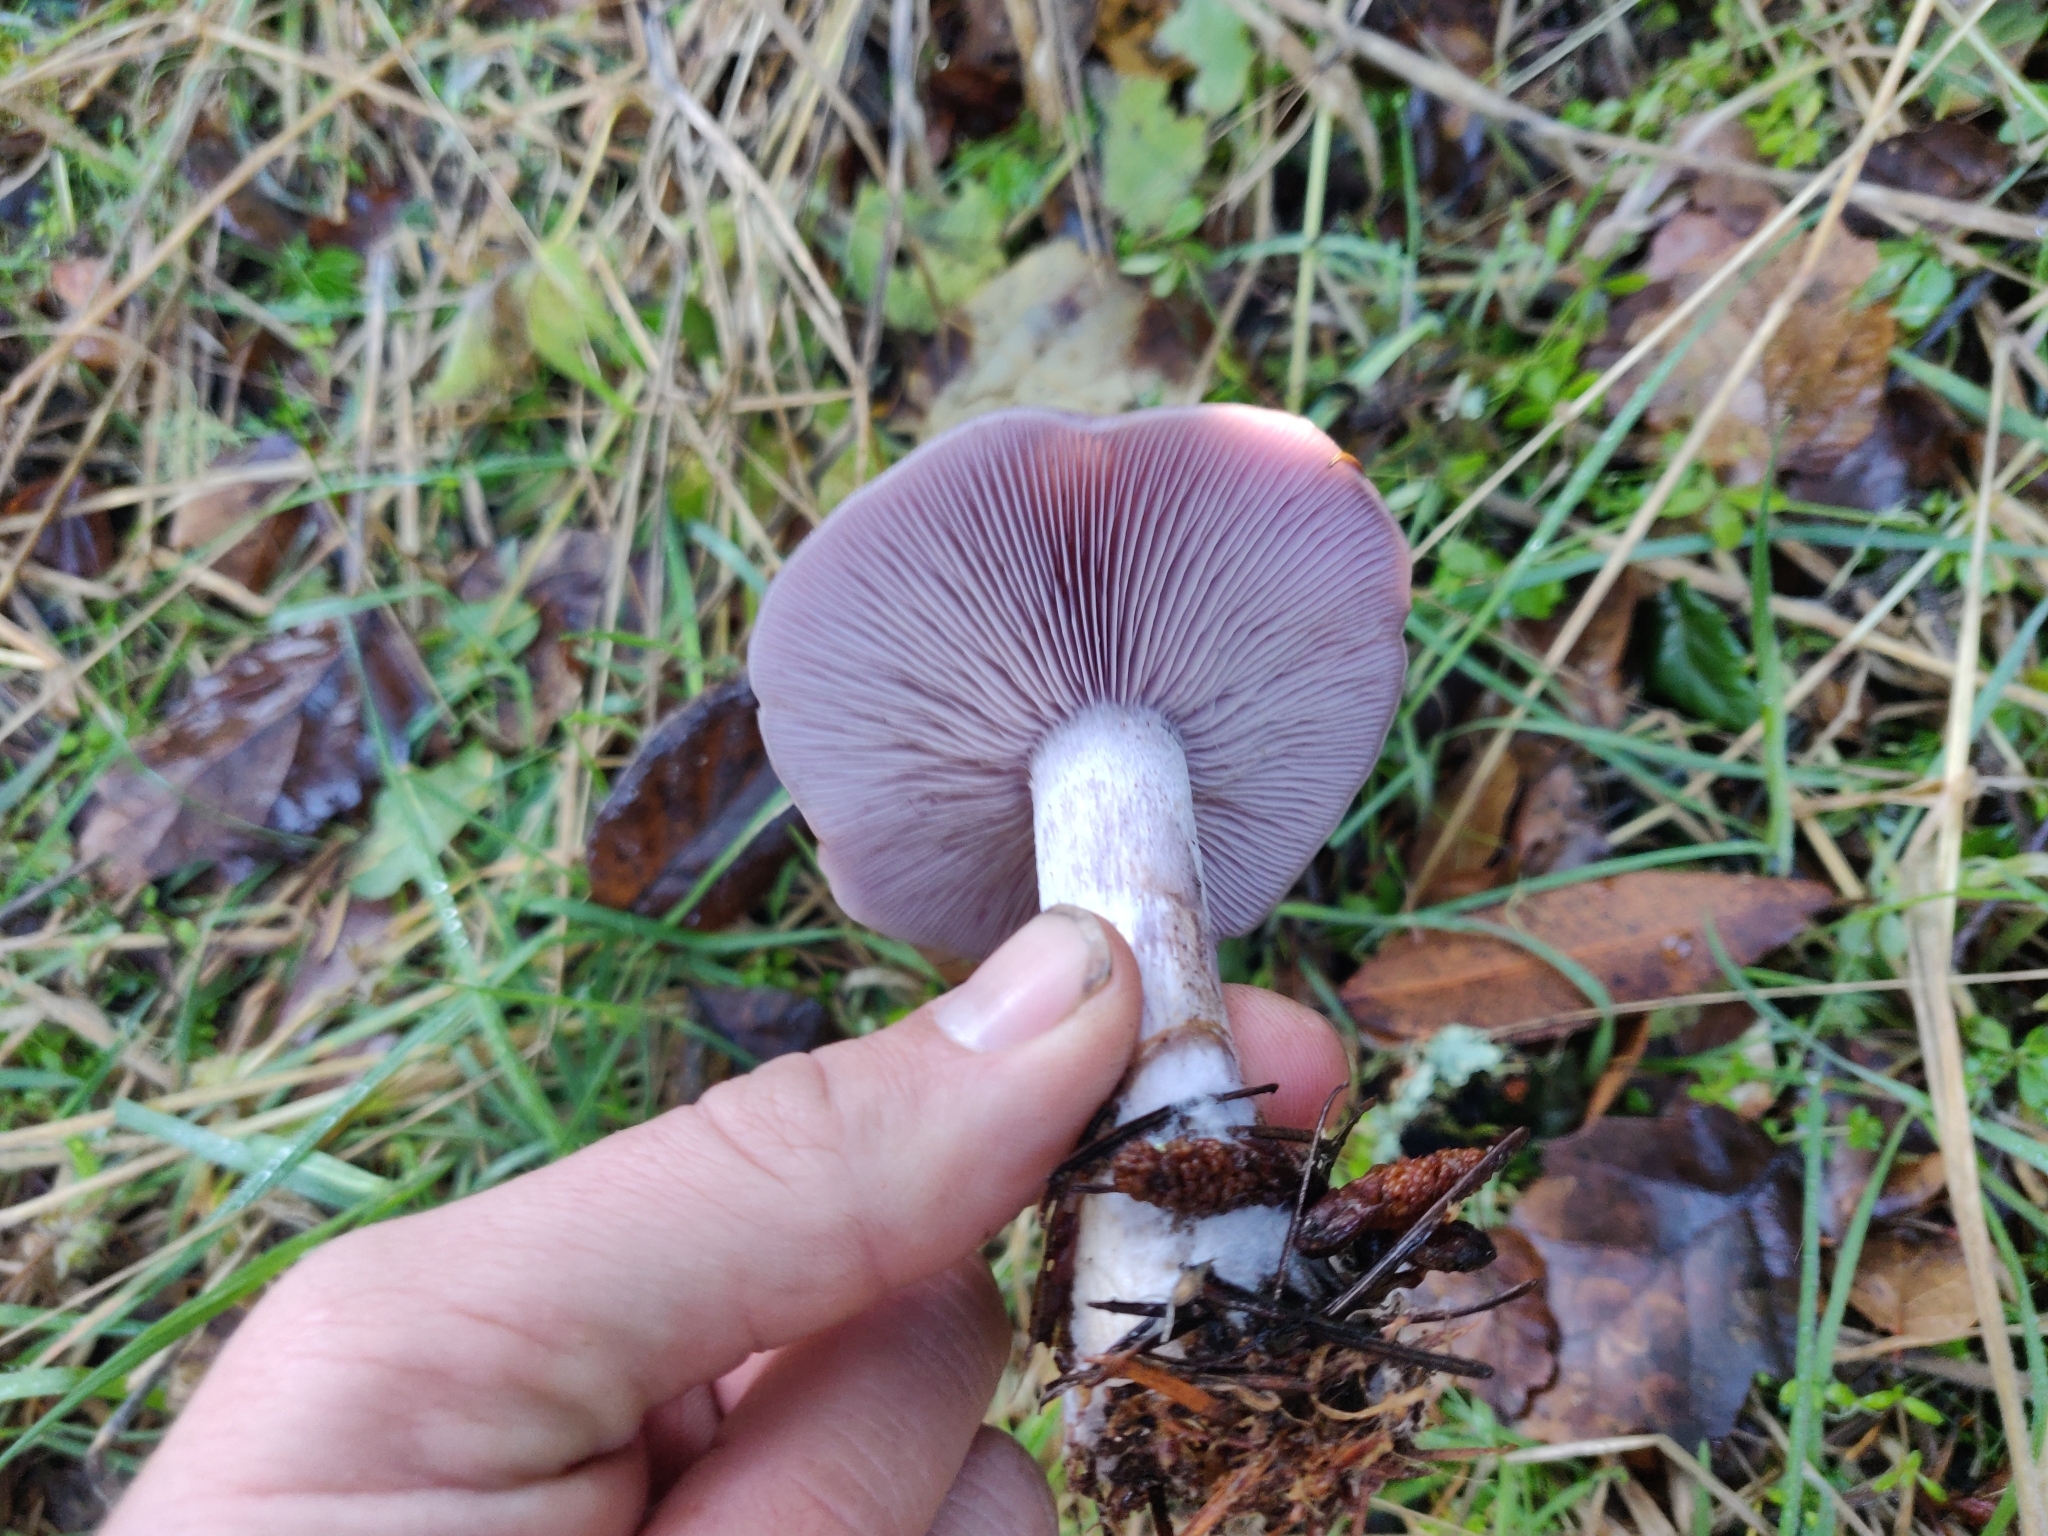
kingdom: Fungi
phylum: Basidiomycota
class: Agaricomycetes
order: Agaricales
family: Tricholomataceae
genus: Collybia
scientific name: Collybia
